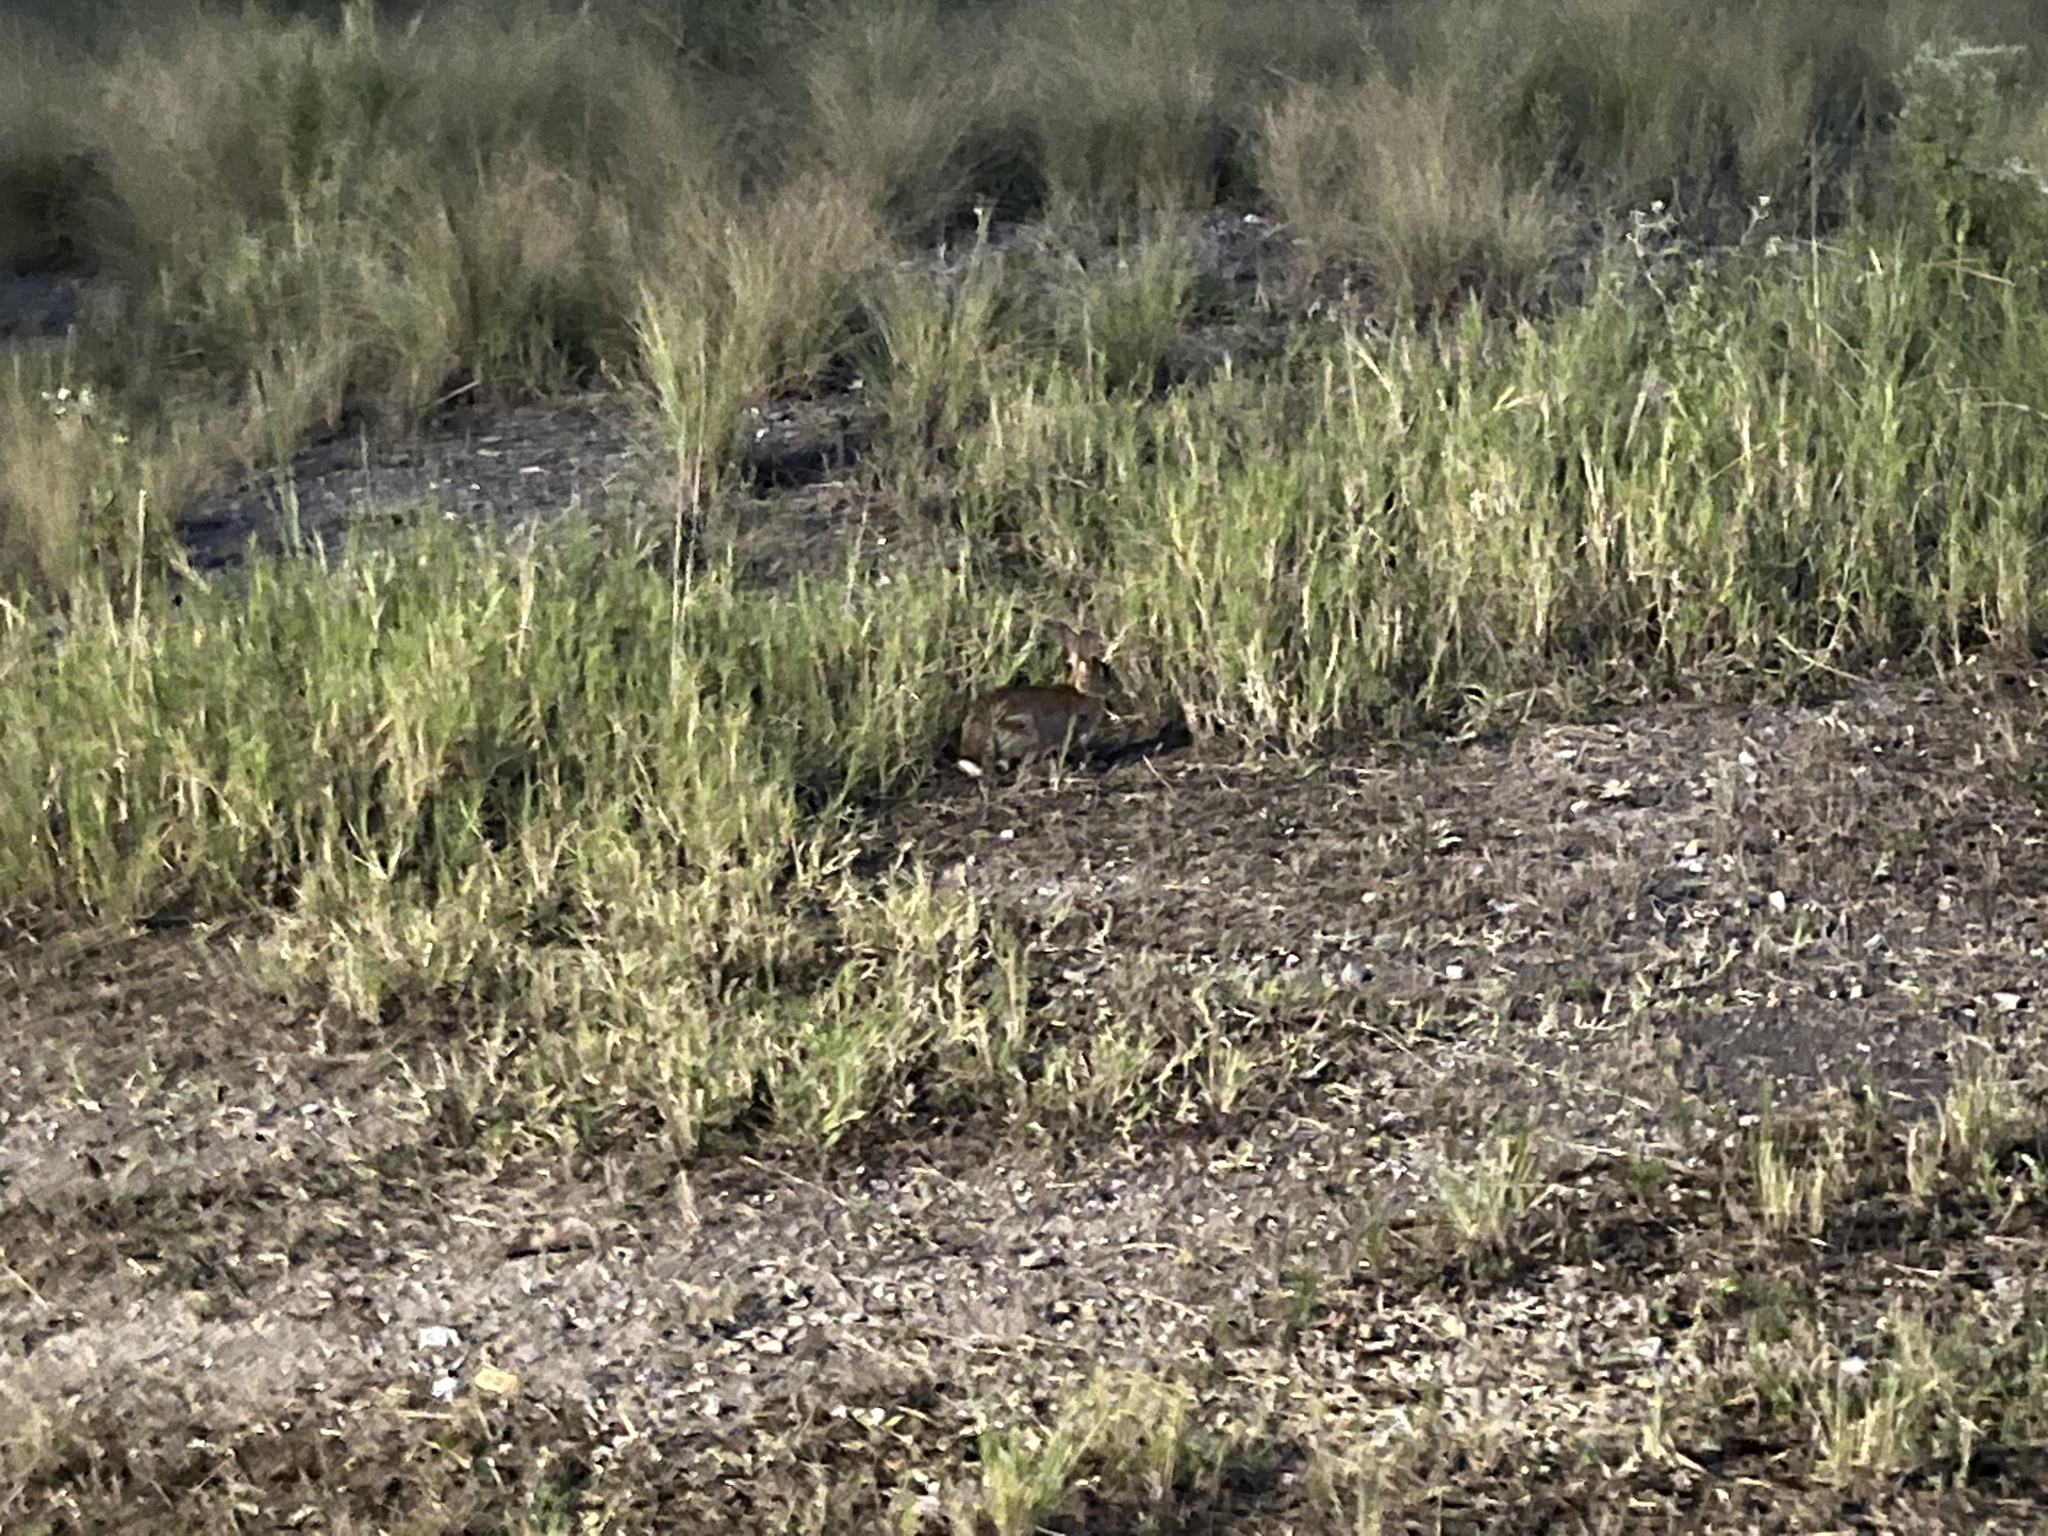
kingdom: Animalia
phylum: Chordata
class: Mammalia
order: Lagomorpha
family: Leporidae
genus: Sylvilagus
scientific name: Sylvilagus floridanus
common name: Eastern cottontail
